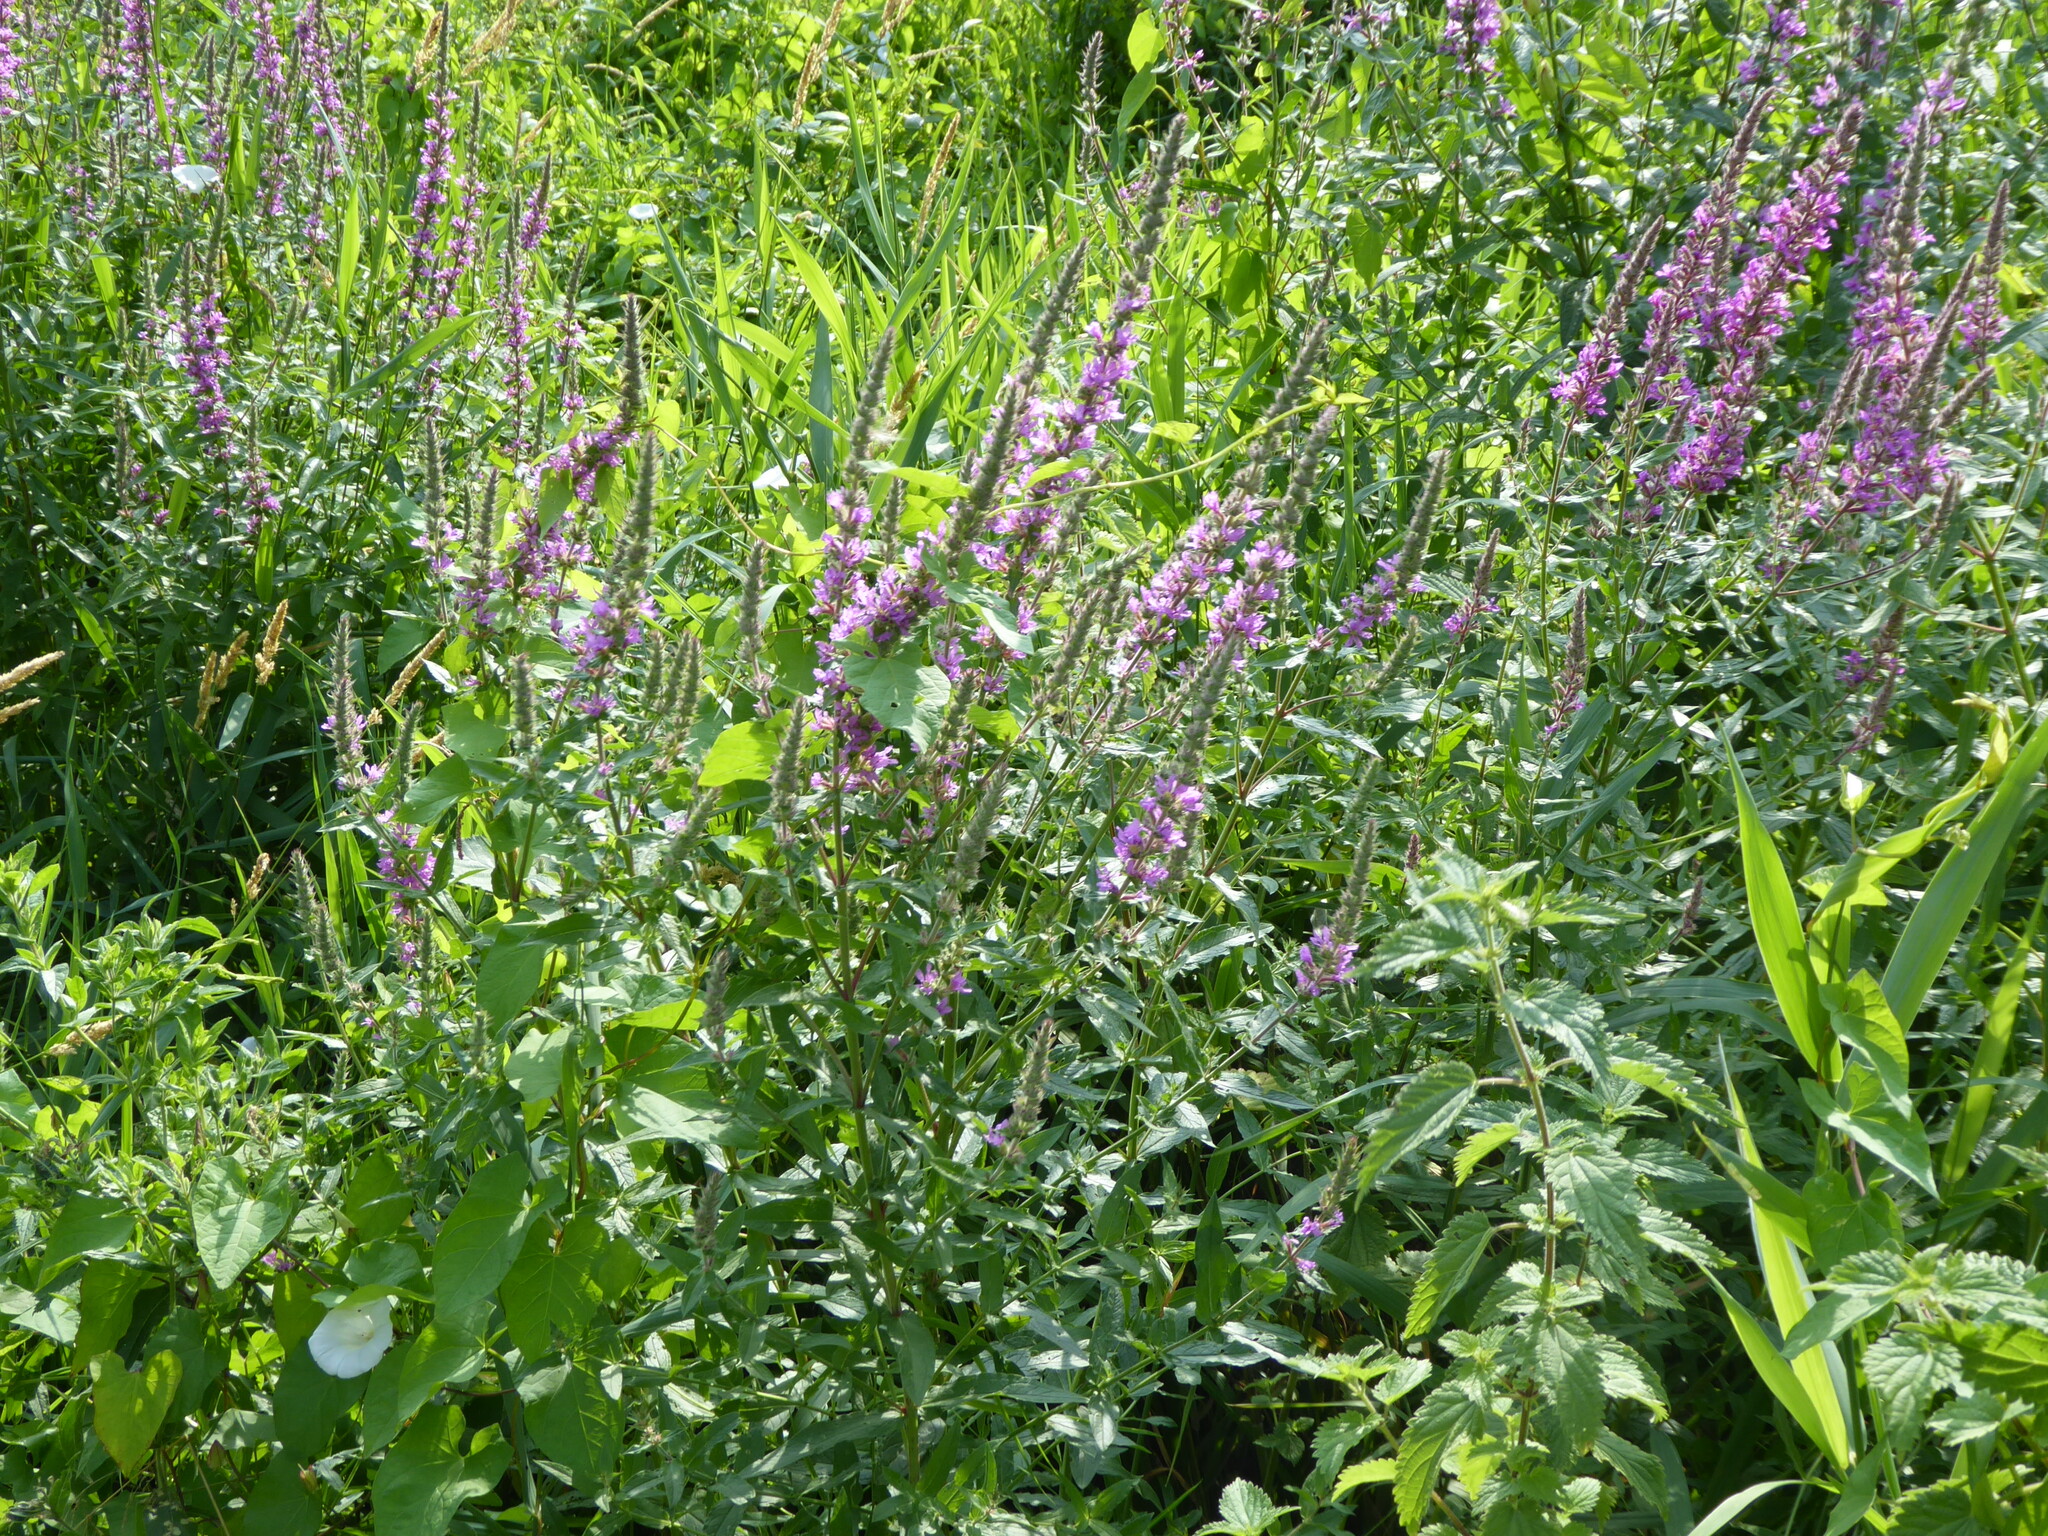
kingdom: Plantae
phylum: Tracheophyta
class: Magnoliopsida
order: Myrtales
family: Lythraceae
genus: Lythrum
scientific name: Lythrum salicaria
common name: Purple loosestrife
